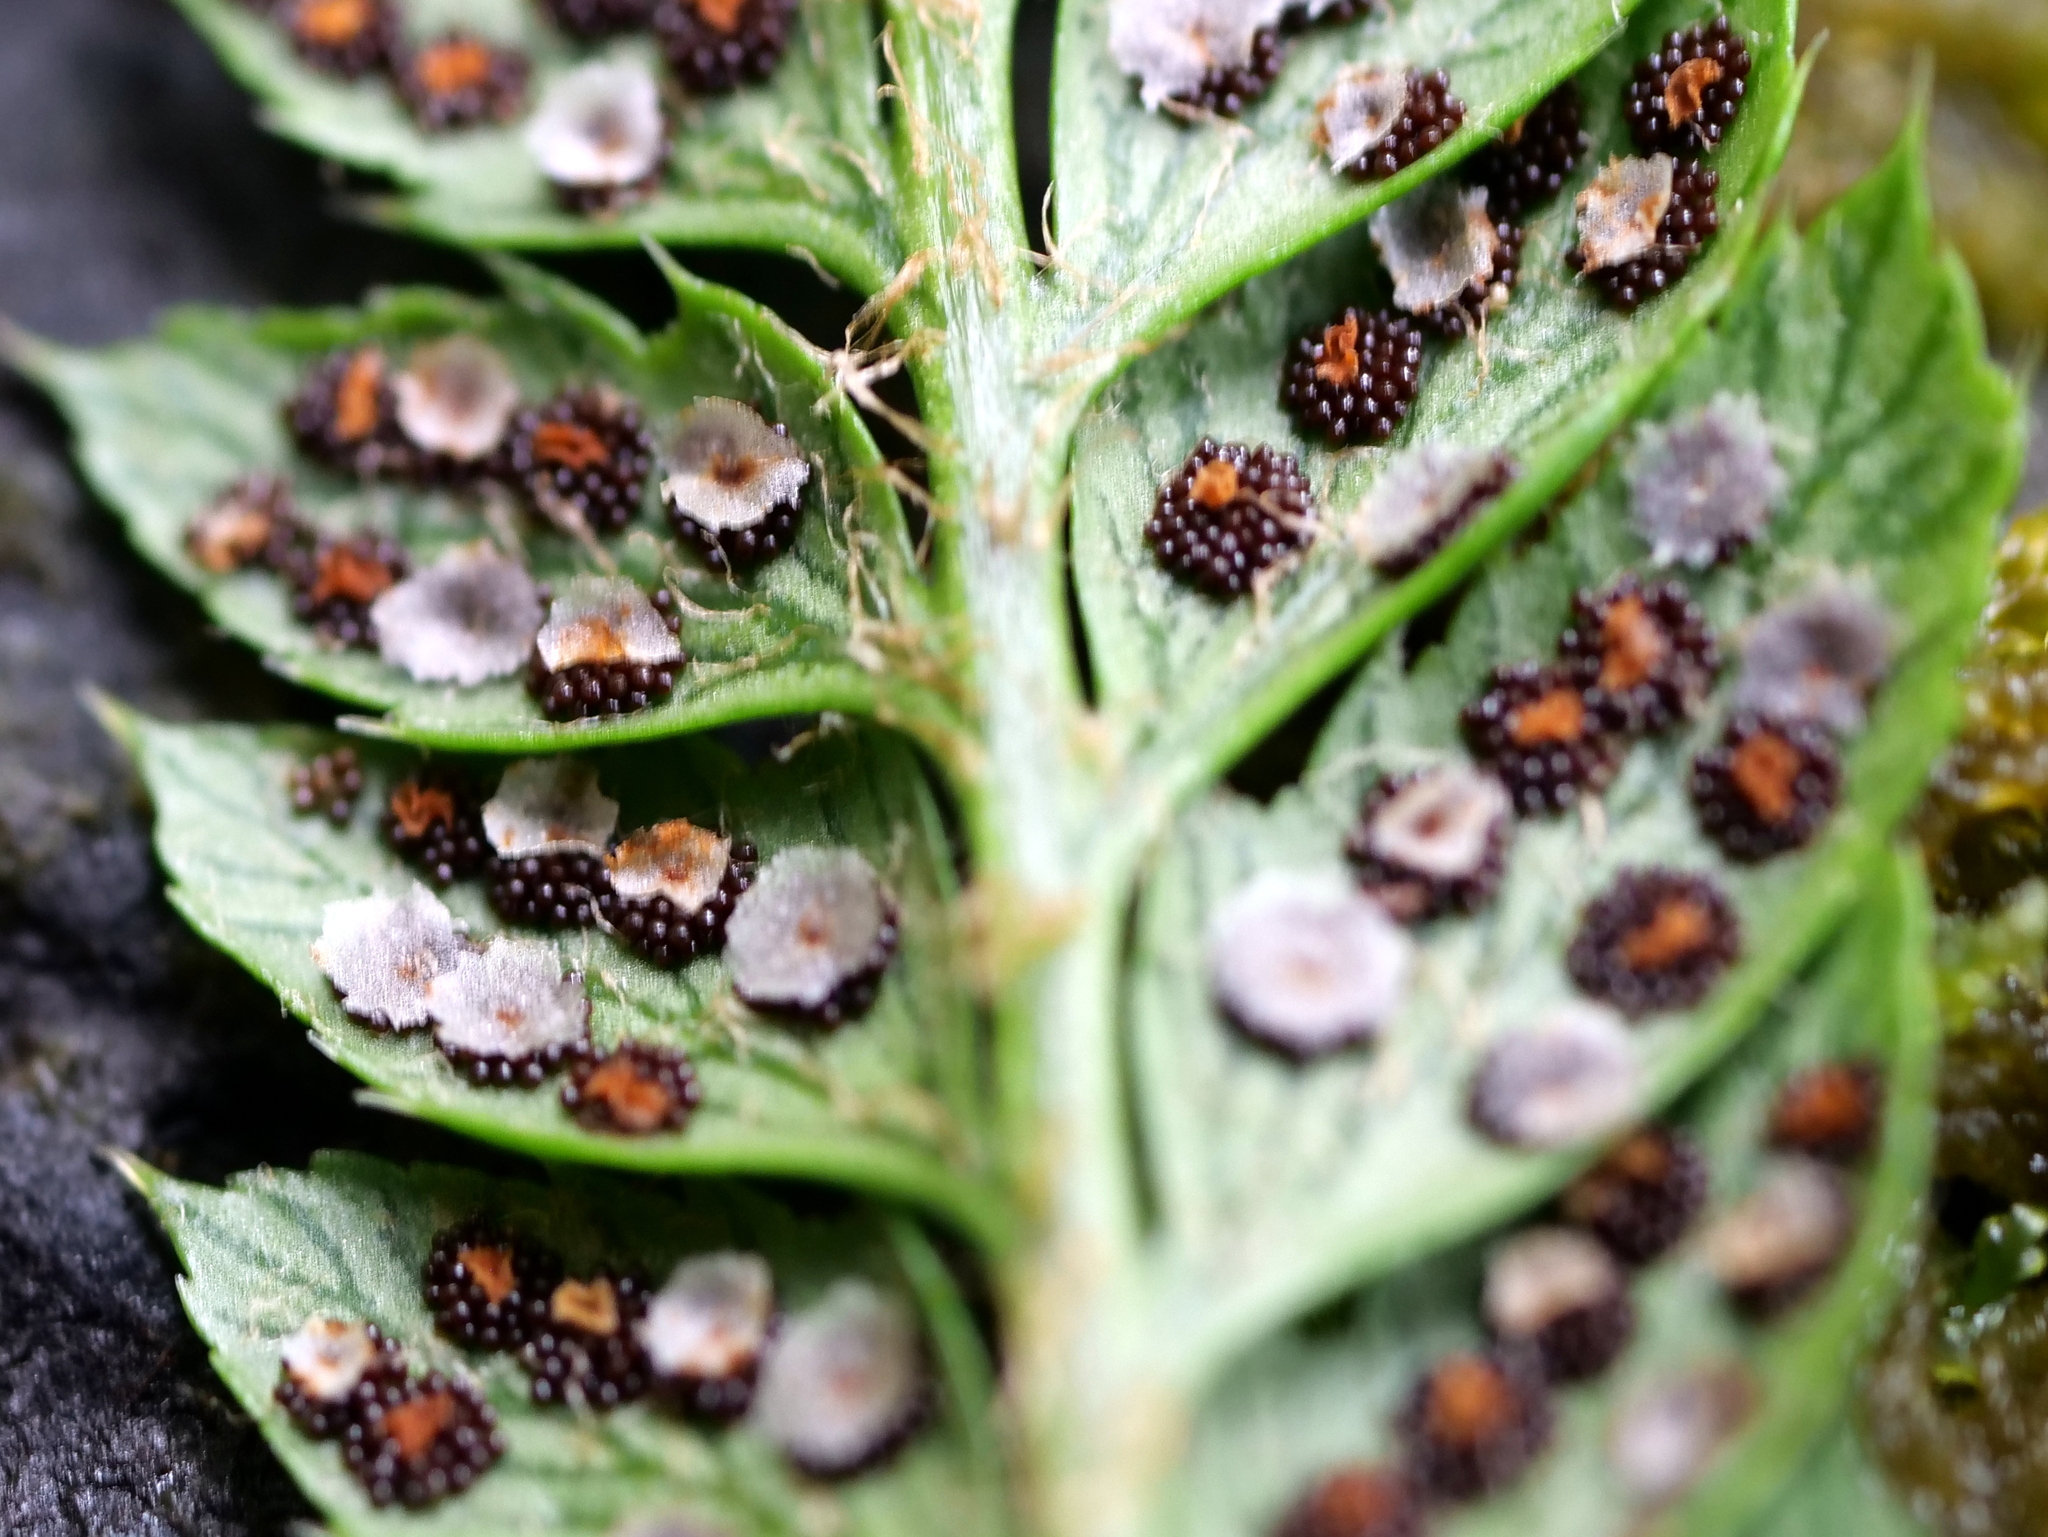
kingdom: Plantae
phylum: Tracheophyta
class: Polypodiopsida
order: Polypodiales
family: Dryopteridaceae
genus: Polystichum
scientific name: Polystichum aculeatum
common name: Hard shield-fern
